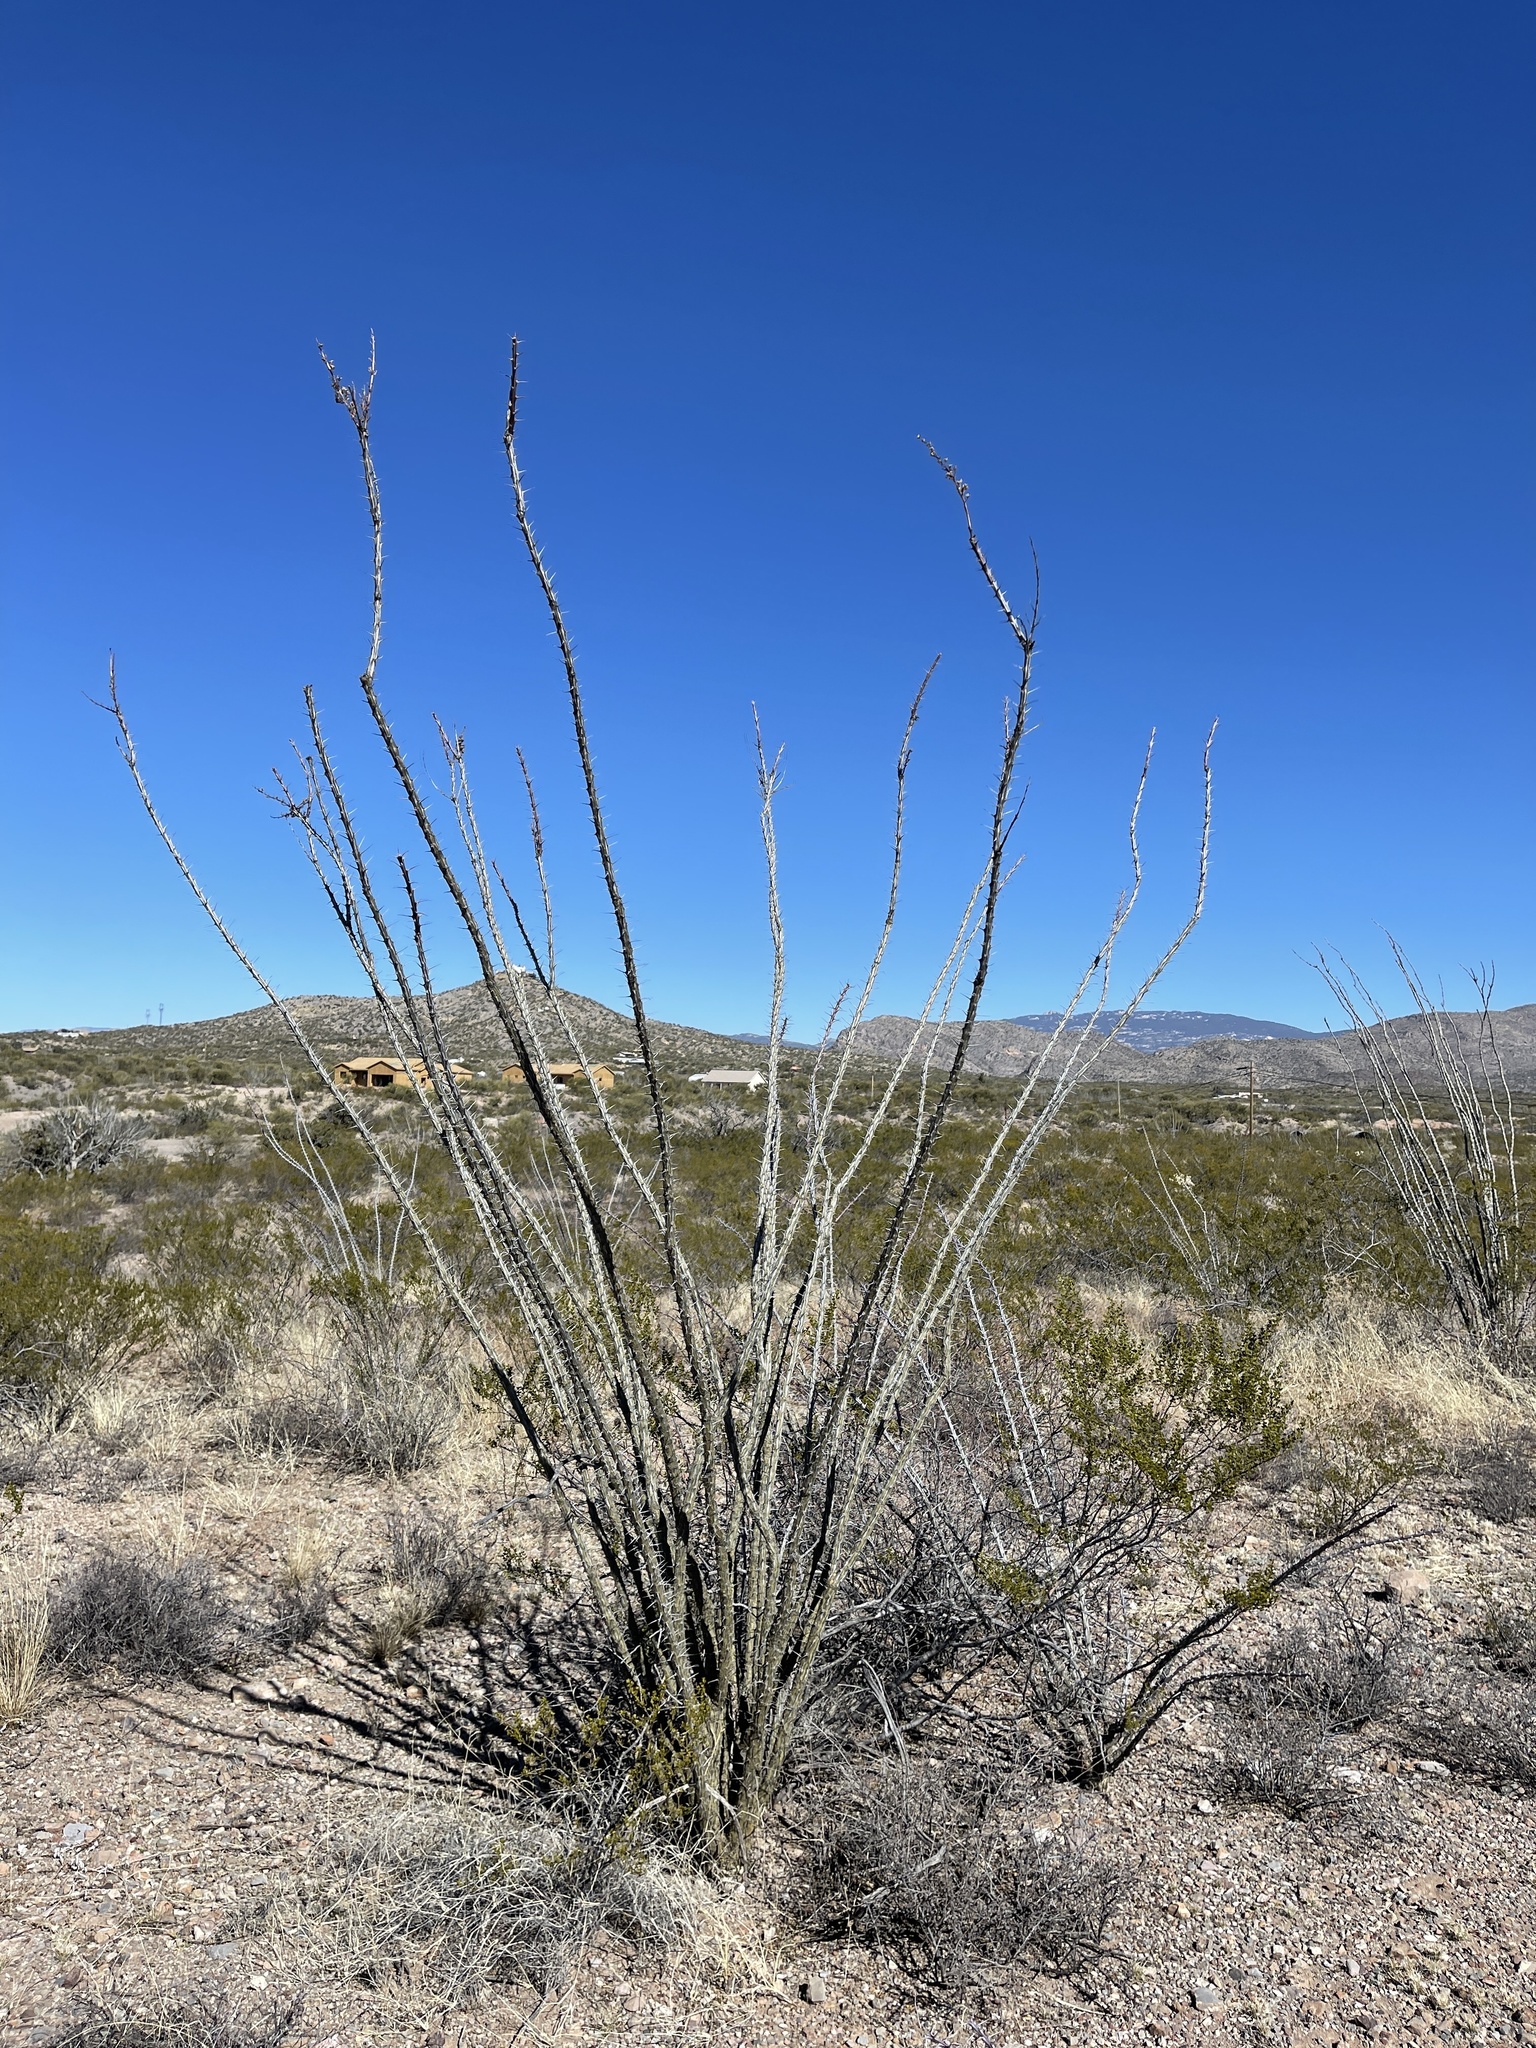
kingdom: Plantae
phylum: Tracheophyta
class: Magnoliopsida
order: Ericales
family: Fouquieriaceae
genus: Fouquieria
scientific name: Fouquieria splendens
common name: Vine-cactus
